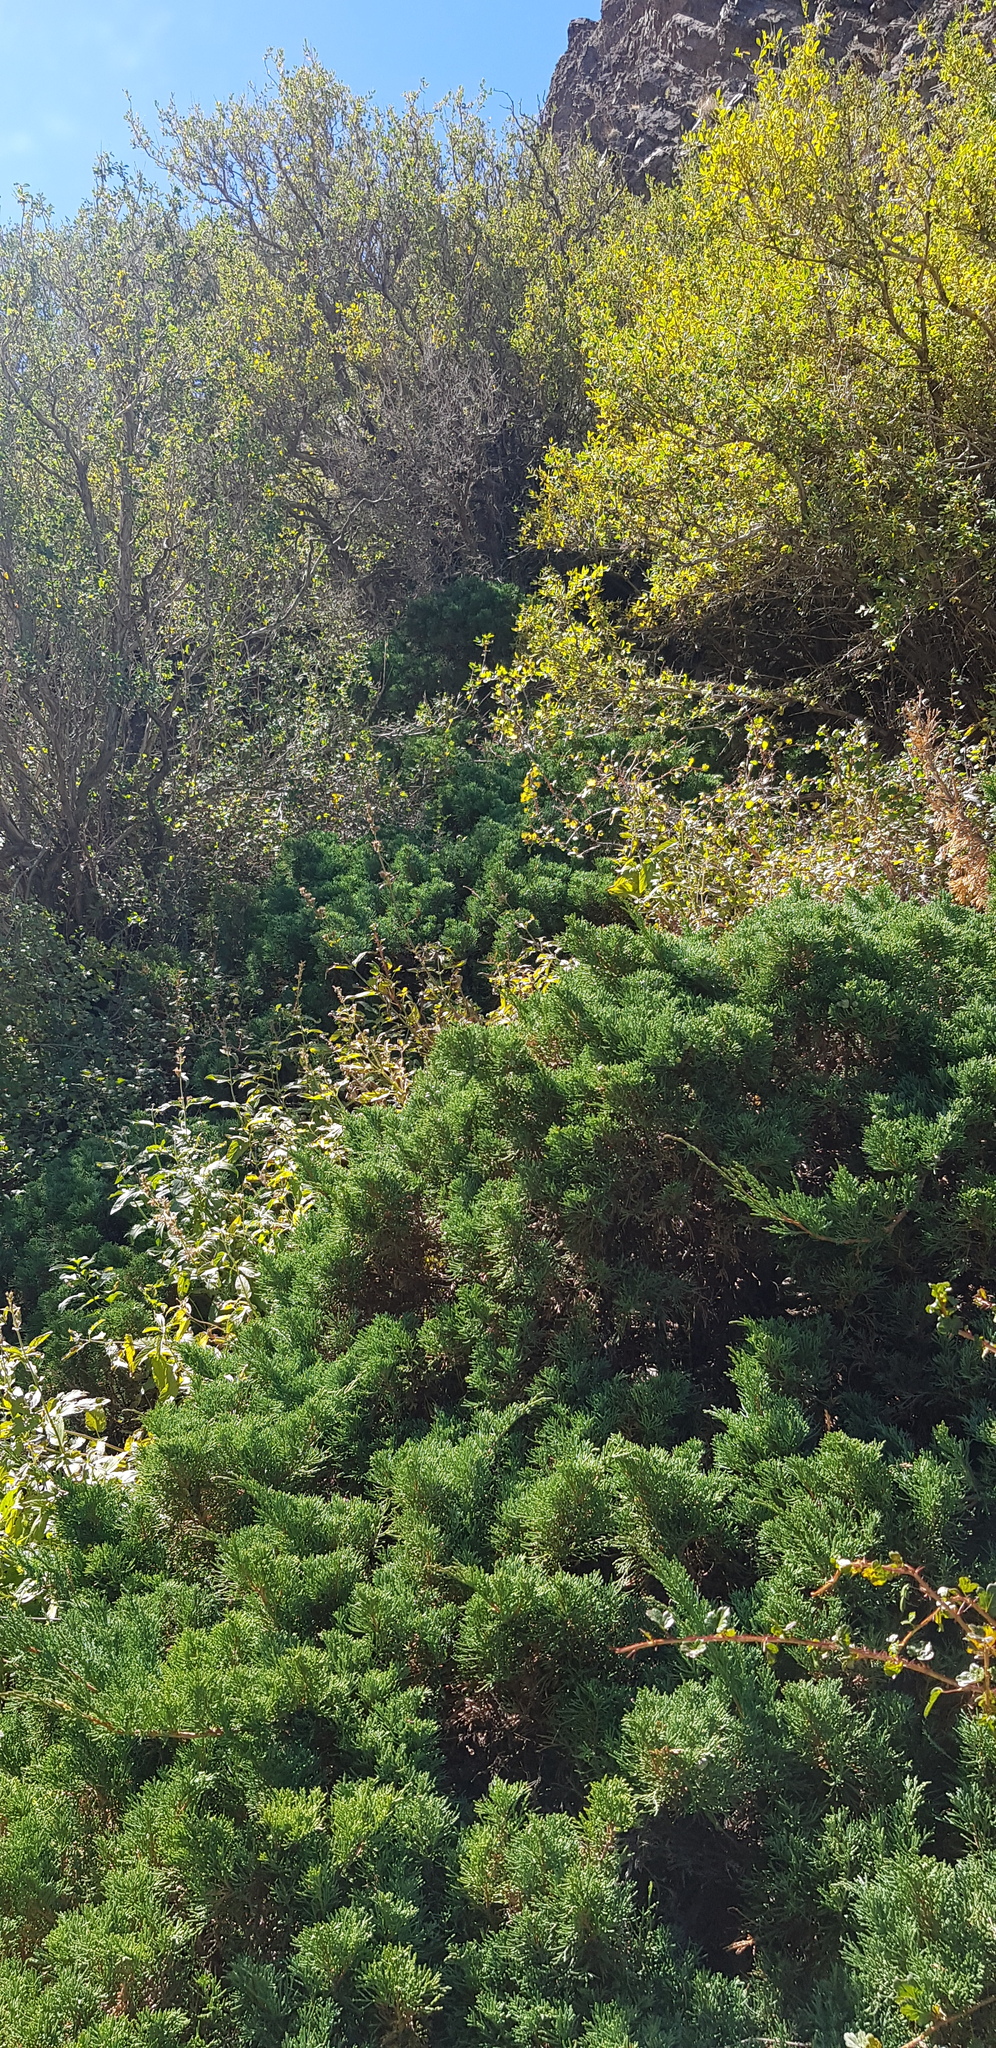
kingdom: Plantae
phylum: Tracheophyta
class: Pinopsida
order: Pinales
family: Cupressaceae
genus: Juniperus
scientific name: Juniperus sabina
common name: Savin
